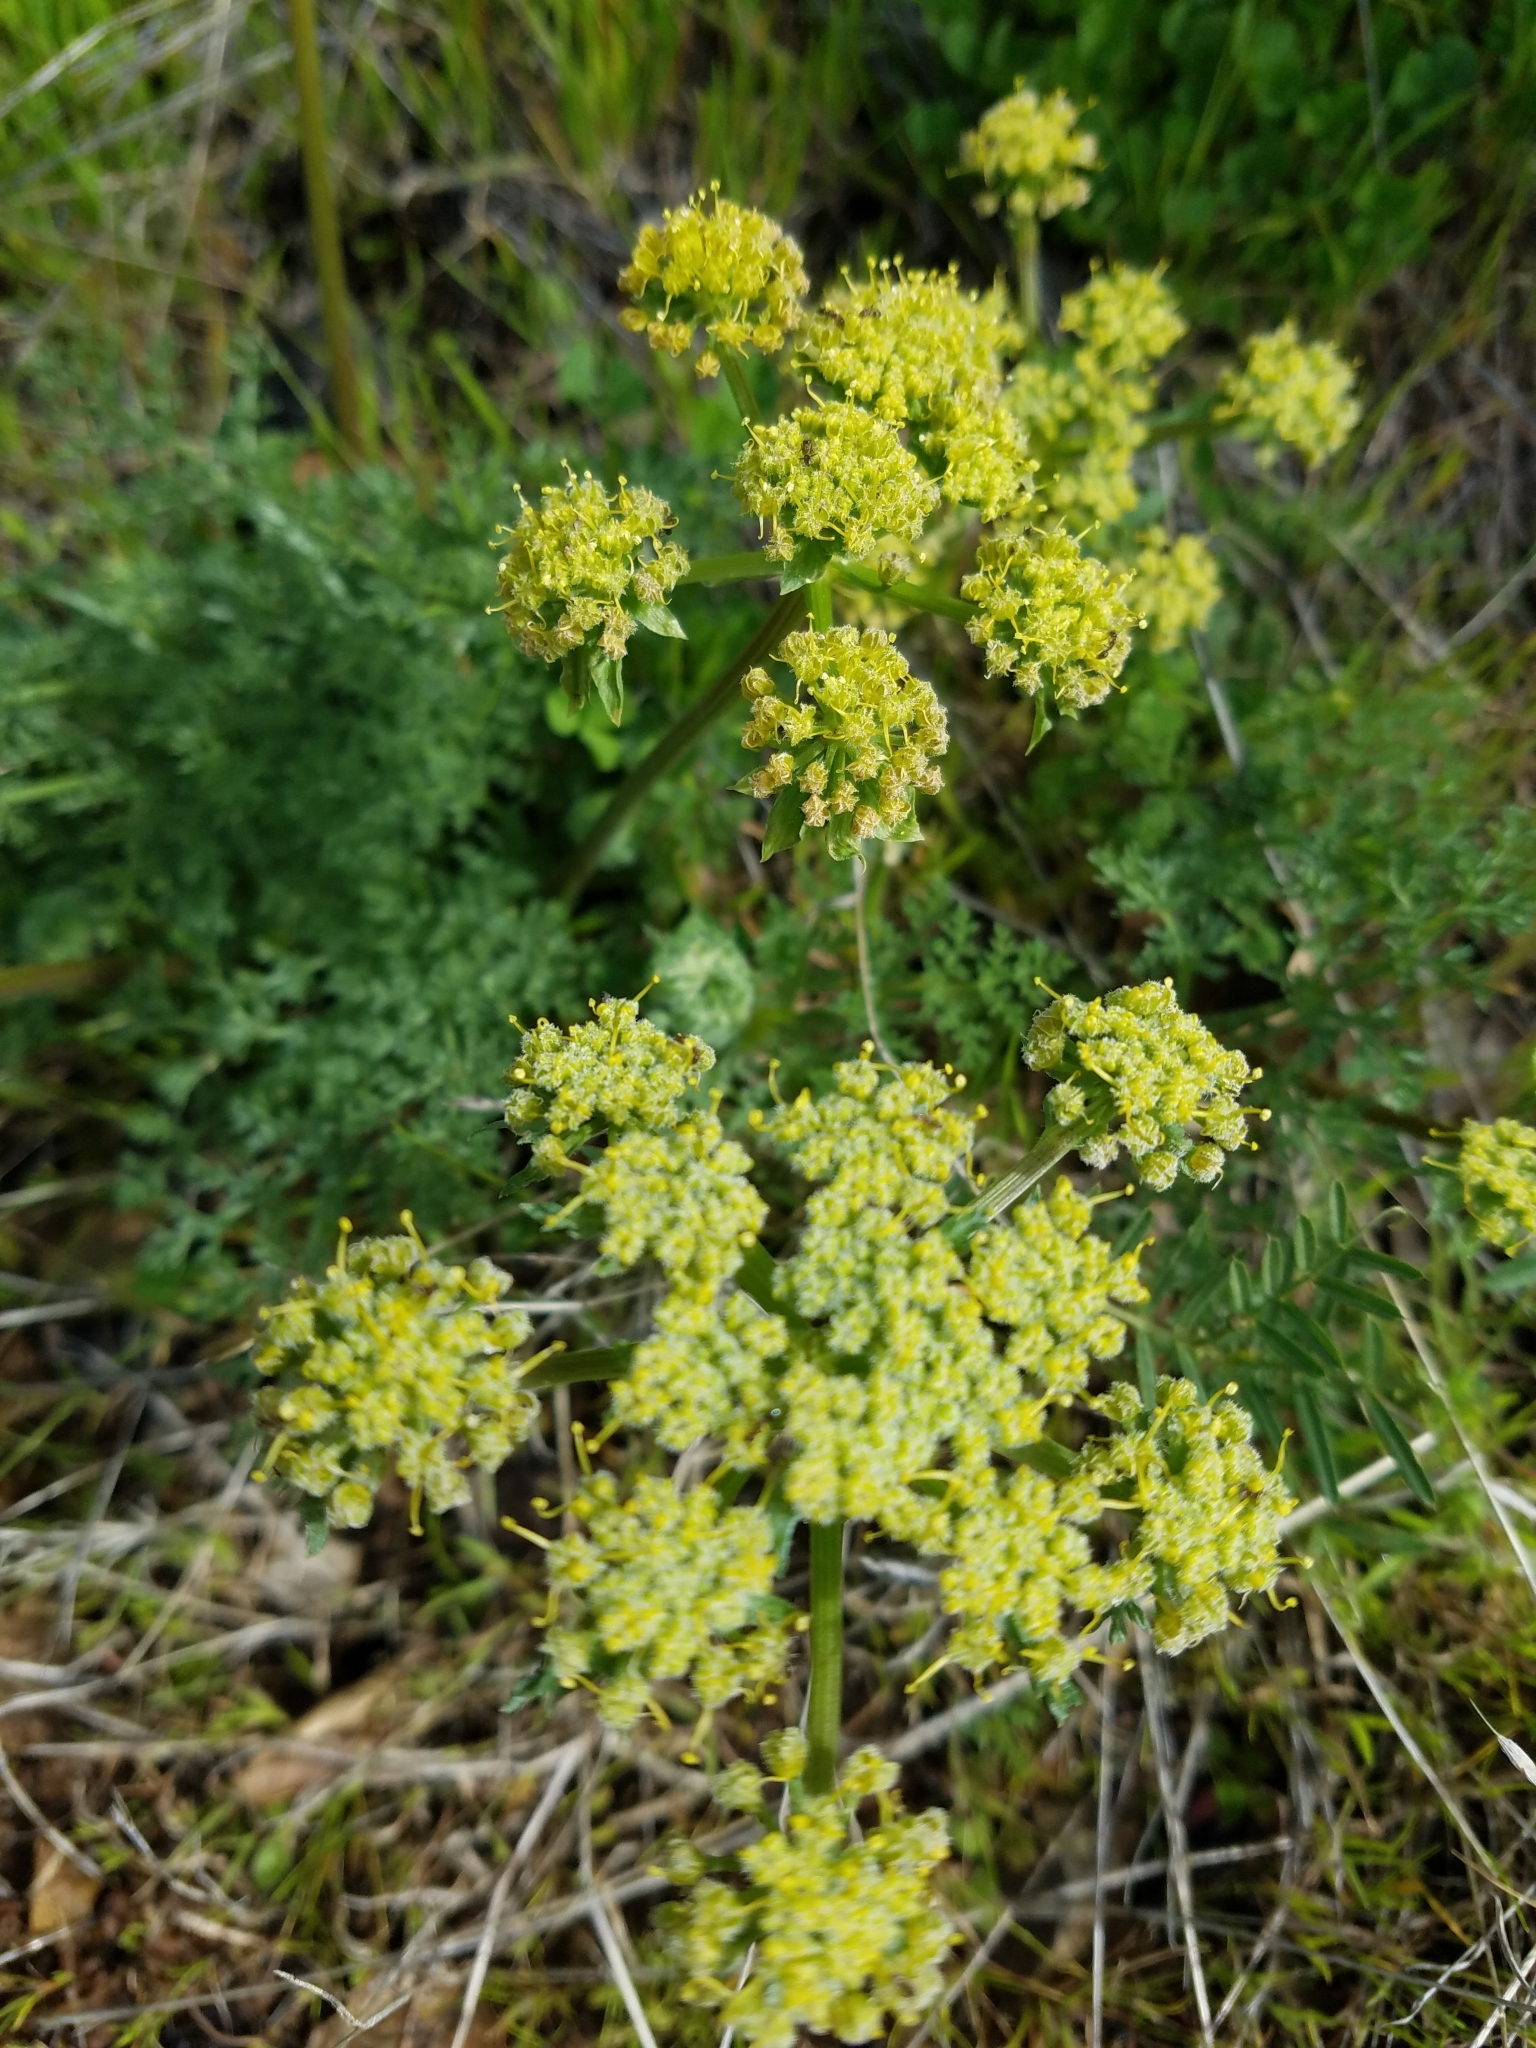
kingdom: Plantae
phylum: Tracheophyta
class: Magnoliopsida
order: Apiales
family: Apiaceae
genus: Lomatium
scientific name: Lomatium dasycarpum
